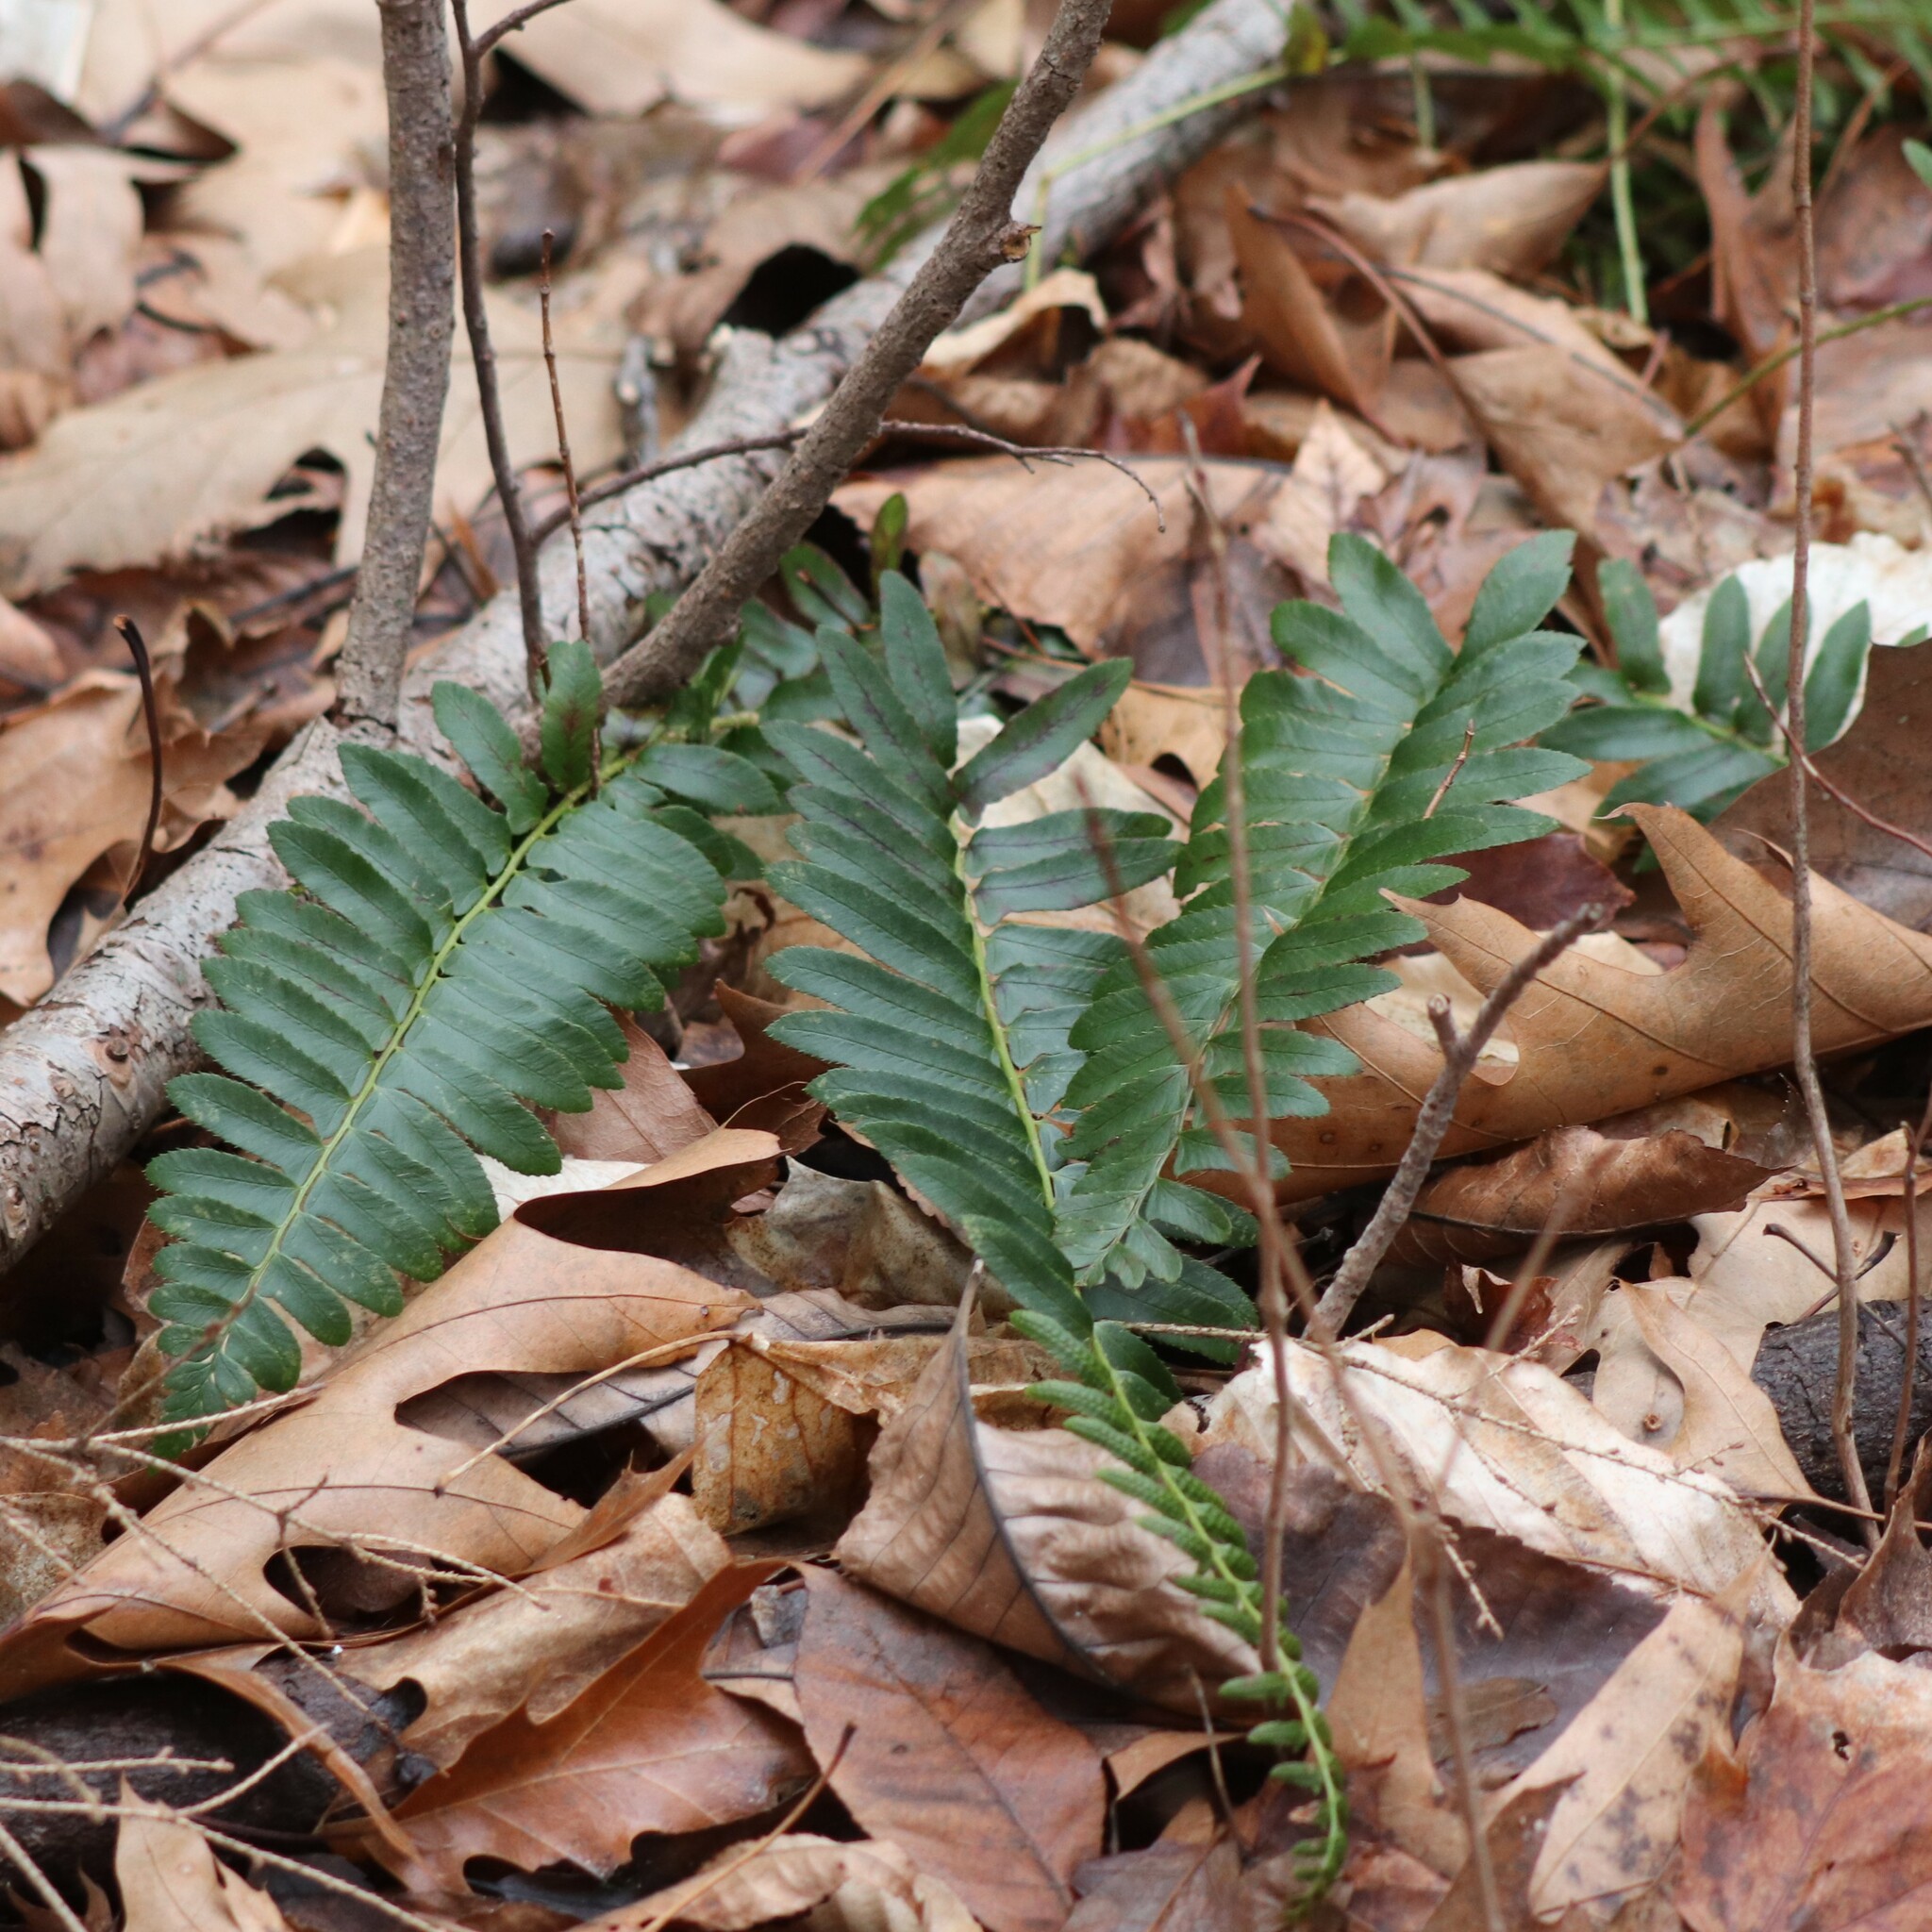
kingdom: Plantae
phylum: Tracheophyta
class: Polypodiopsida
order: Polypodiales
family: Dryopteridaceae
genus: Polystichum
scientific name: Polystichum acrostichoides
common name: Christmas fern
